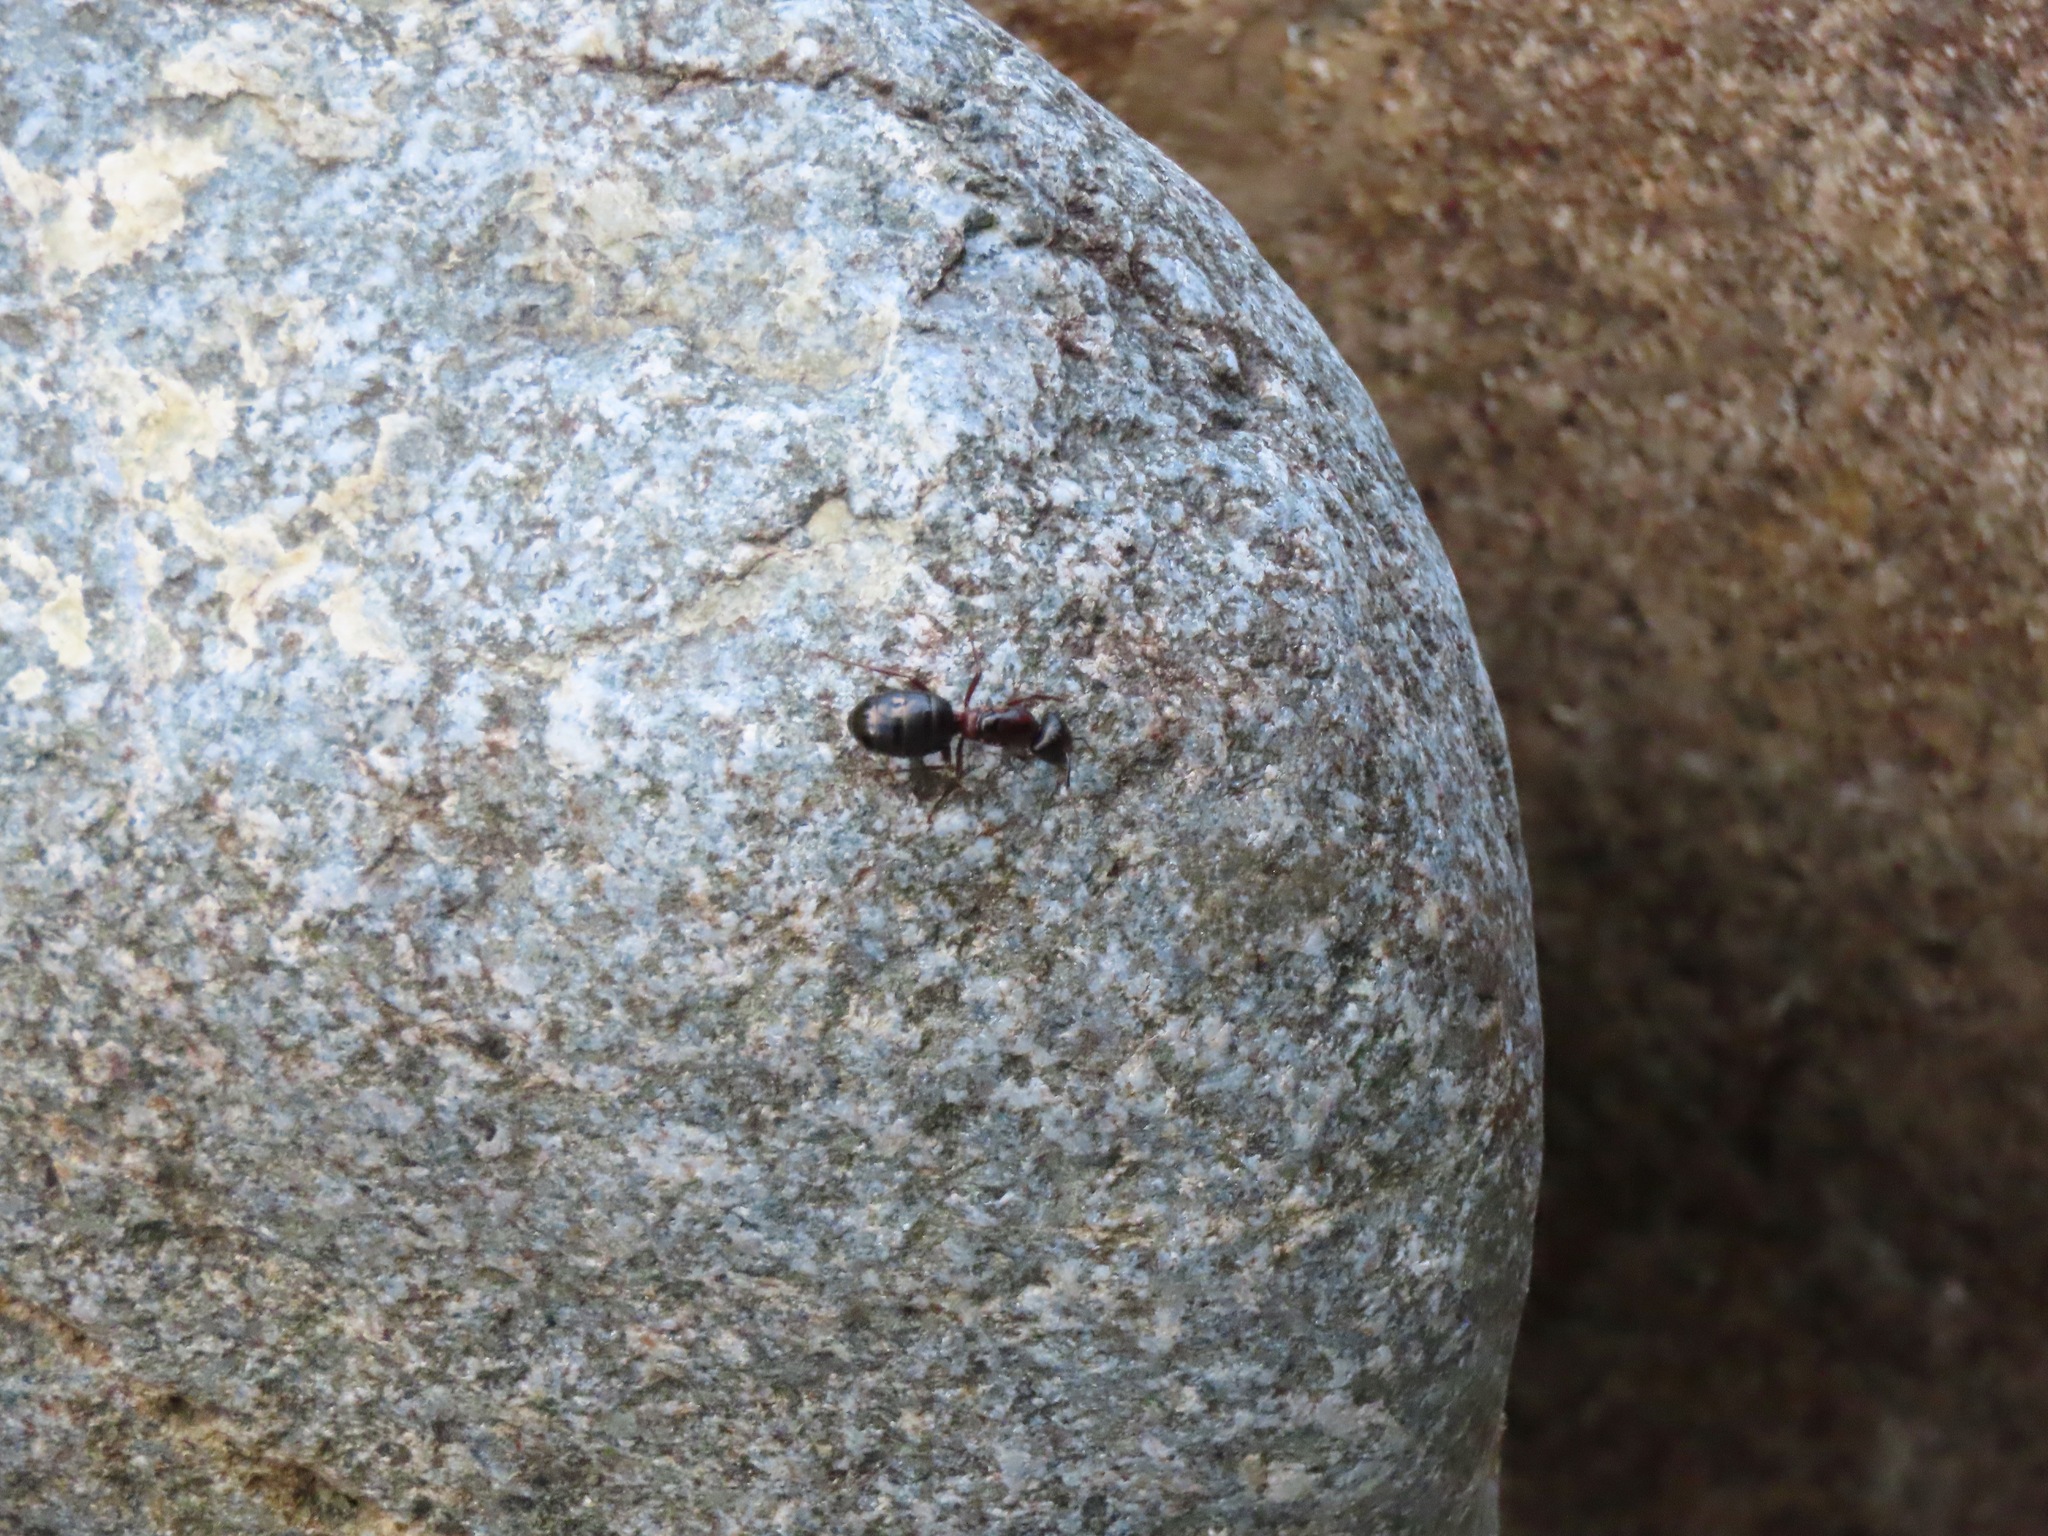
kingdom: Animalia
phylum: Arthropoda
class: Insecta
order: Hymenoptera
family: Formicidae
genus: Camponotus
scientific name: Camponotus novaeboracensis
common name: New york carpenter ant
